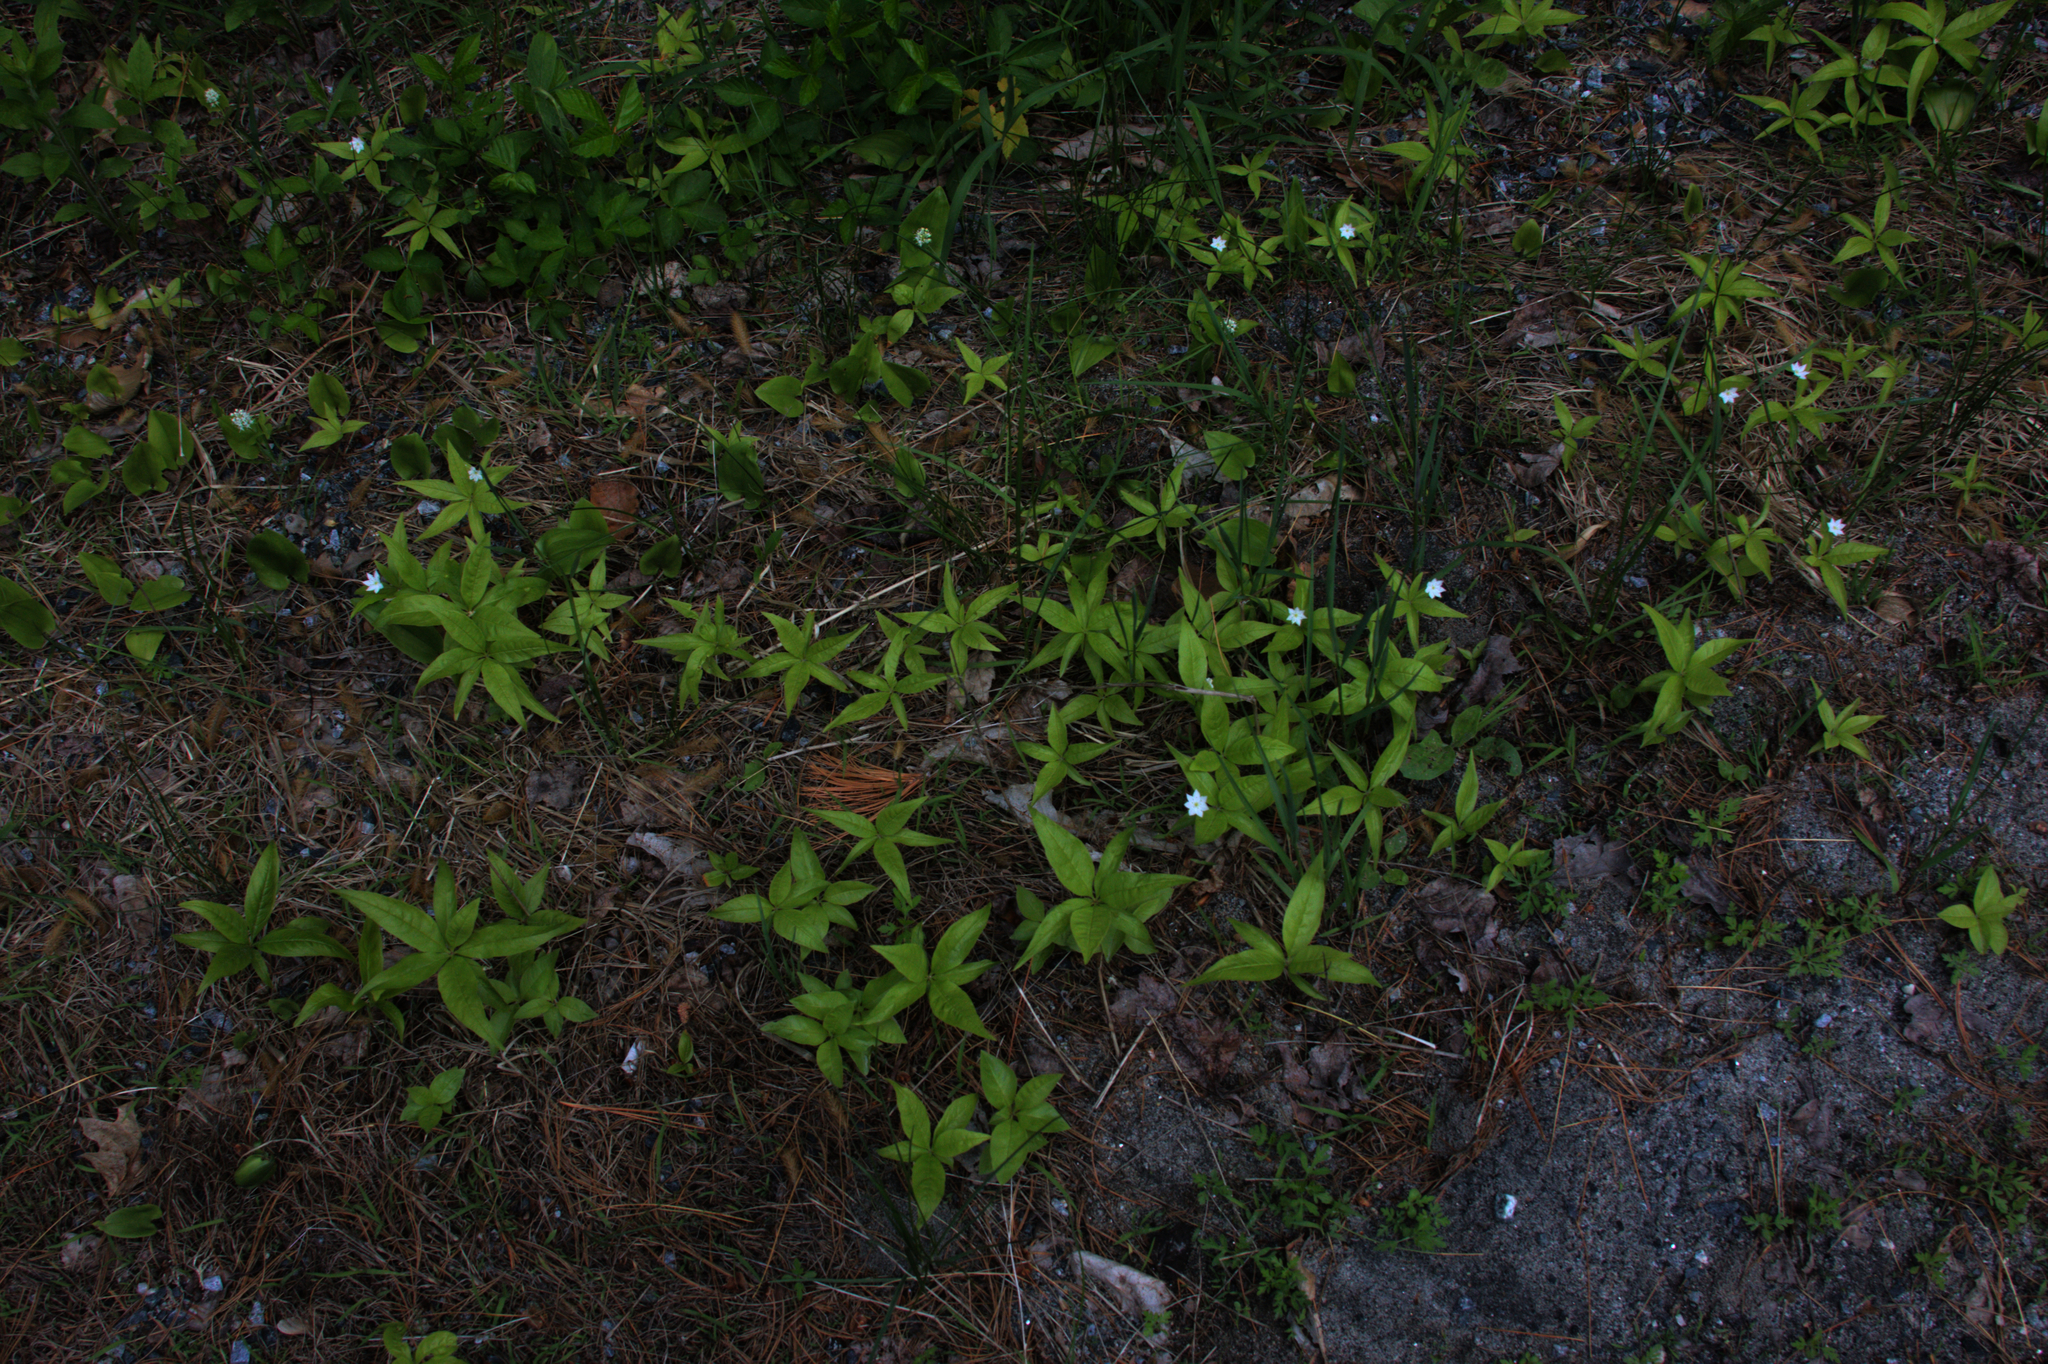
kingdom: Plantae
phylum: Tracheophyta
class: Magnoliopsida
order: Ericales
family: Primulaceae
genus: Lysimachia
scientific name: Lysimachia borealis
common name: American starflower
